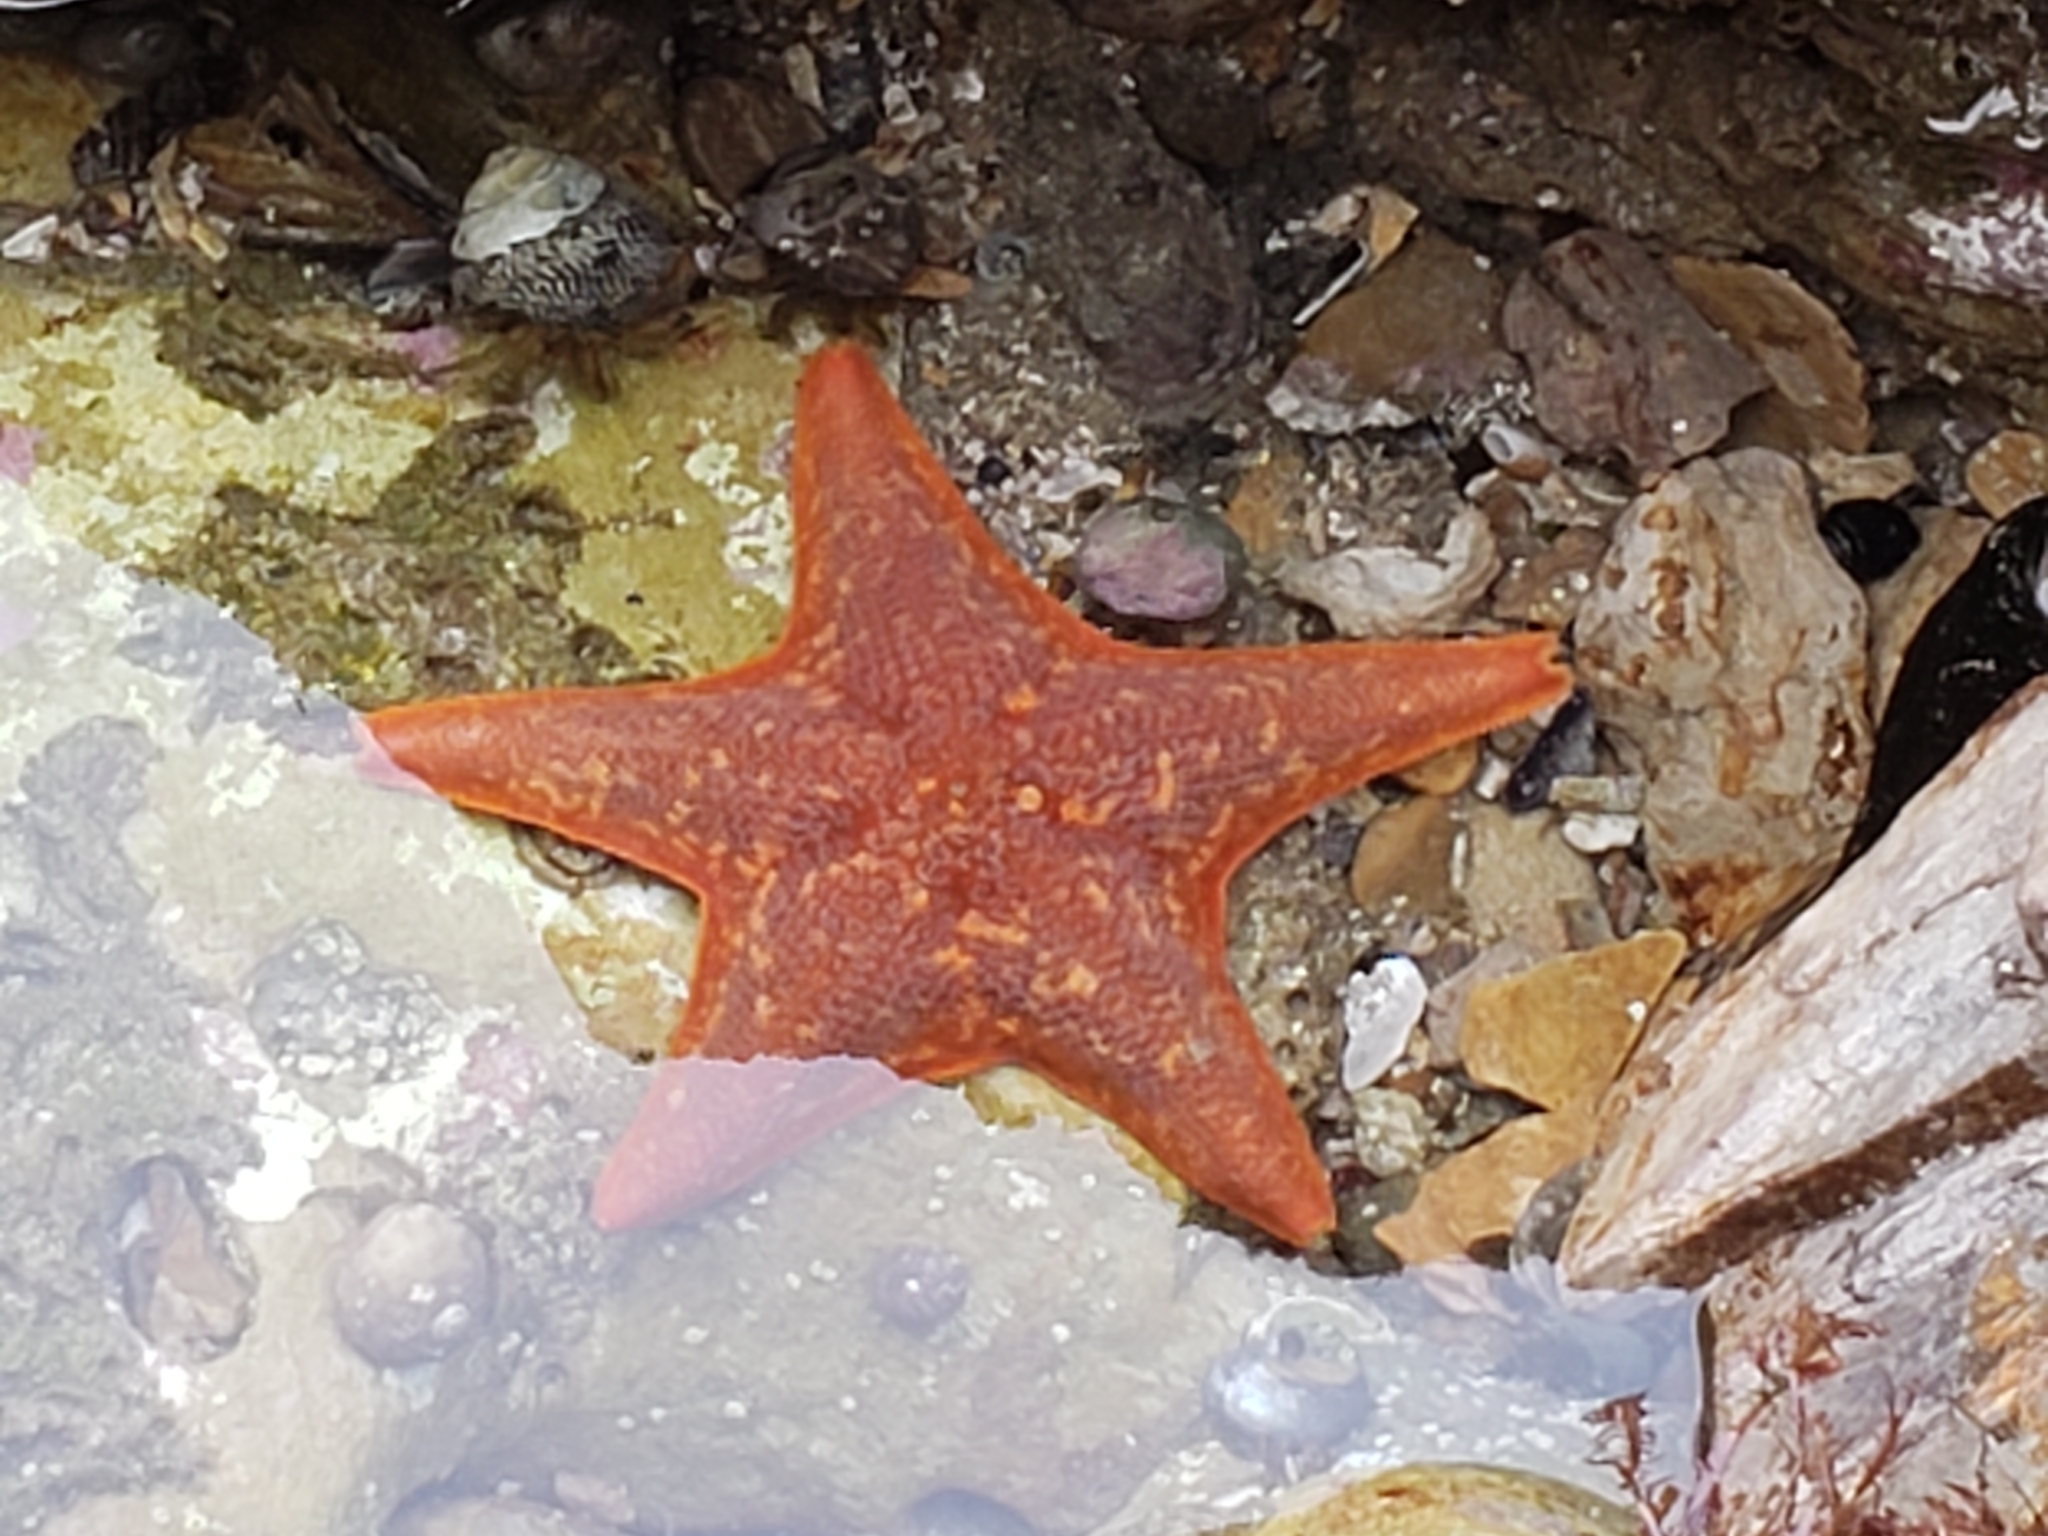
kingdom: Animalia
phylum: Echinodermata
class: Asteroidea
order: Valvatida
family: Asterinidae
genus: Patiria
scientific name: Patiria miniata
